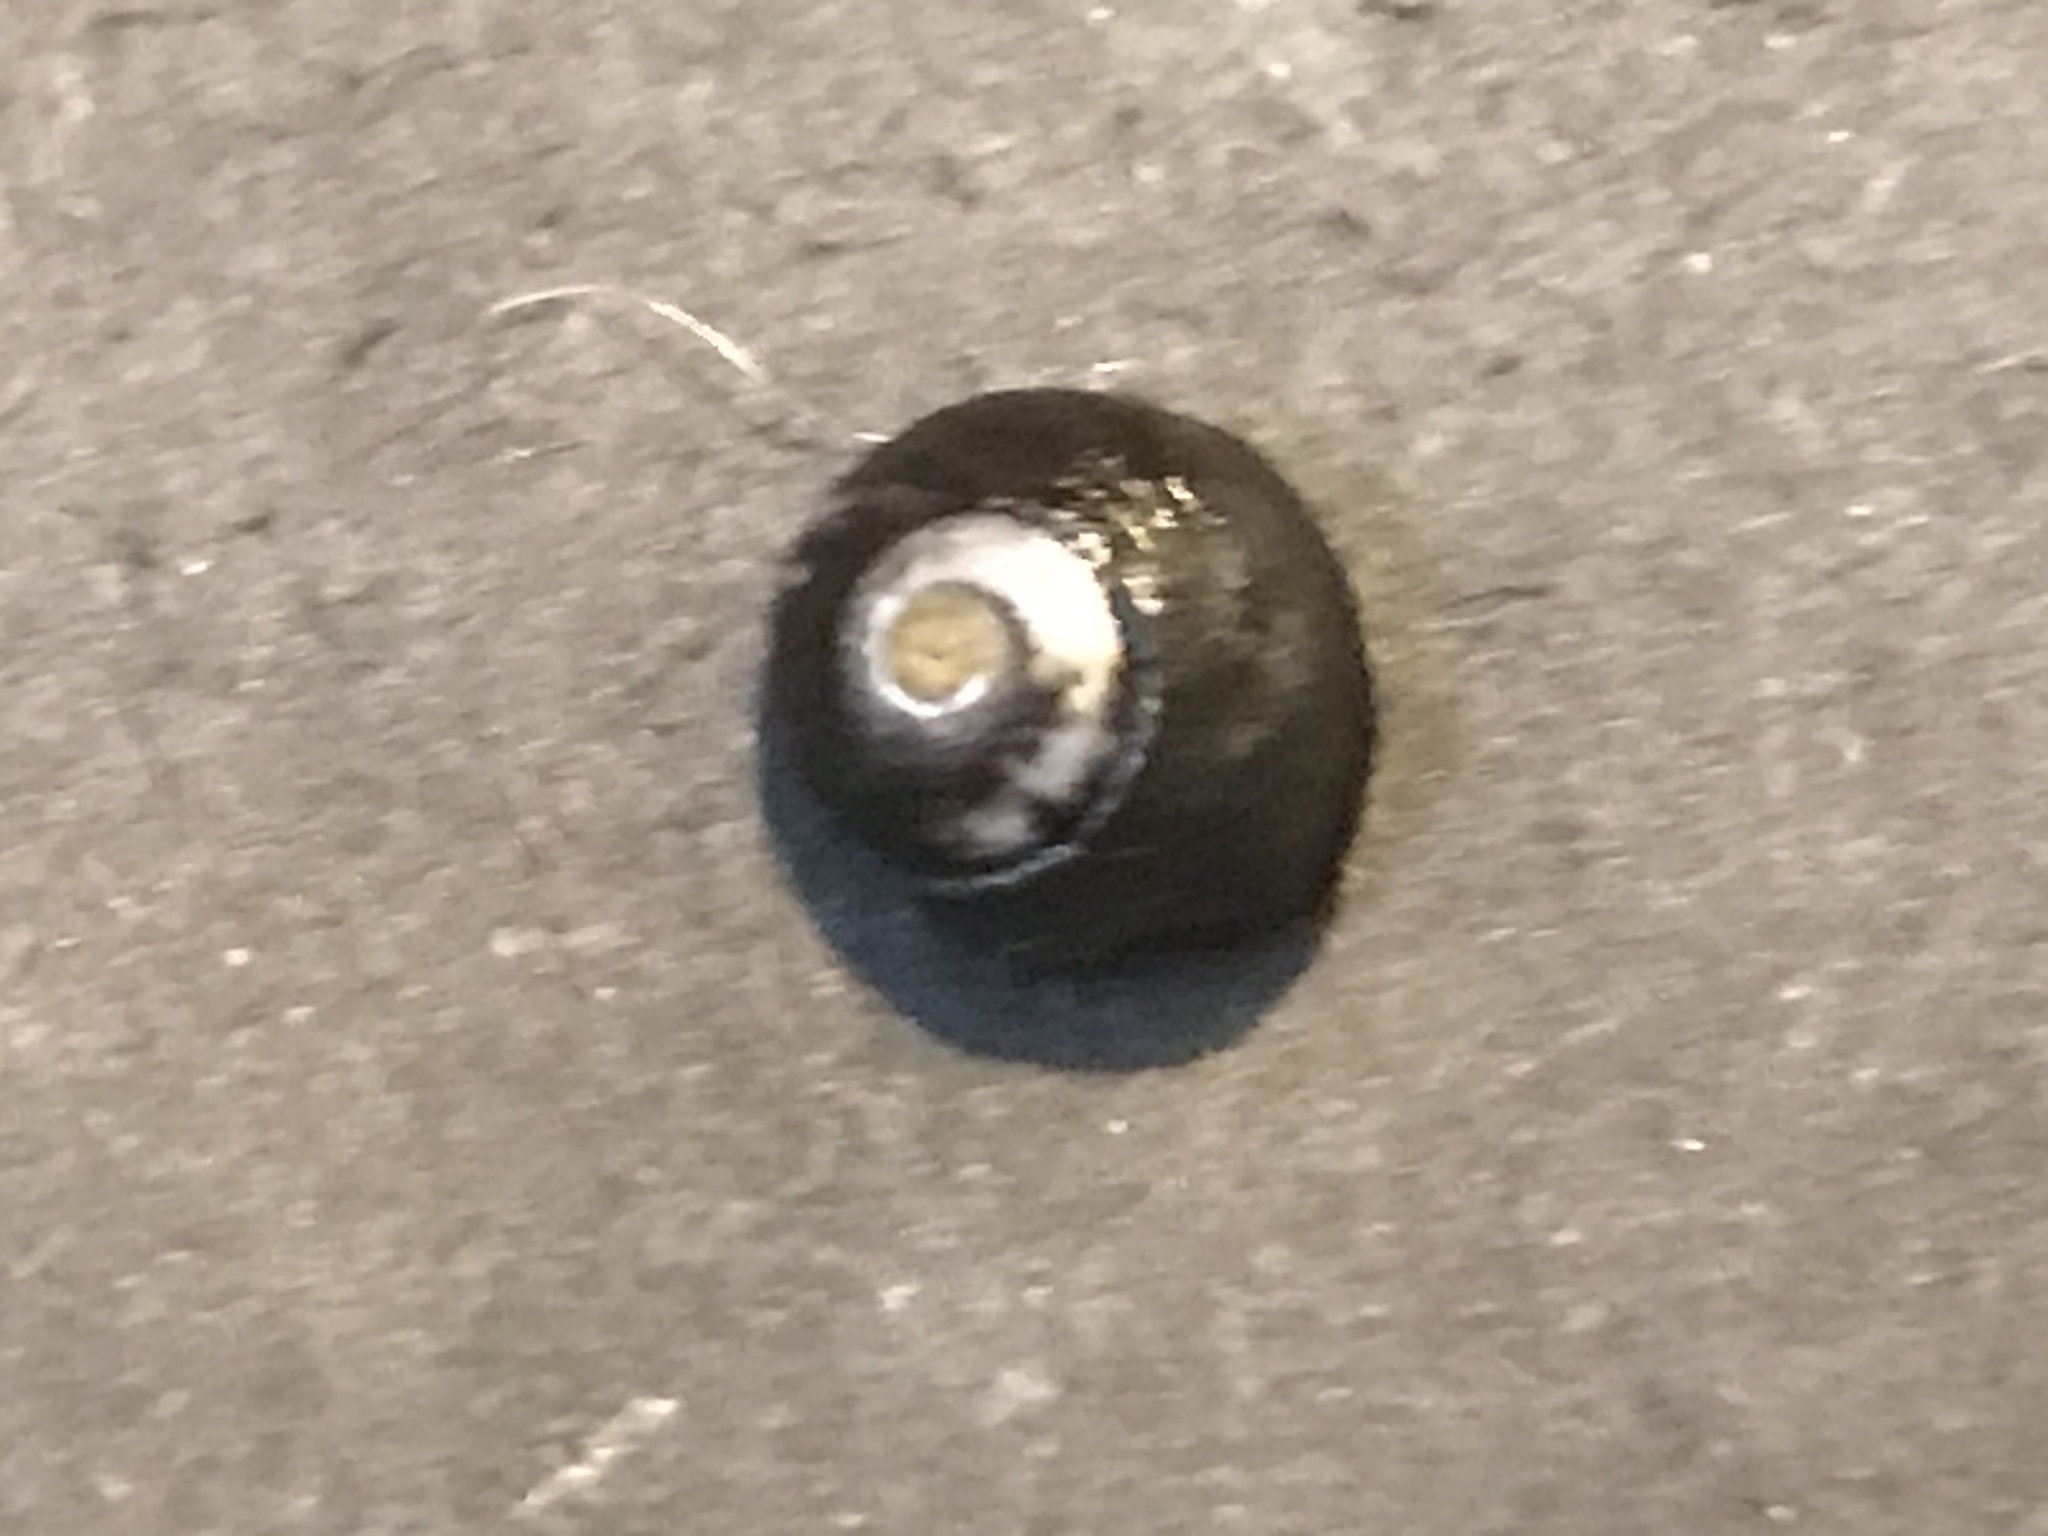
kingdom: Animalia
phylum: Mollusca
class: Gastropoda
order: Trochida
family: Tegulidae
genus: Tegula
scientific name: Tegula funebralis
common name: Black tegula
